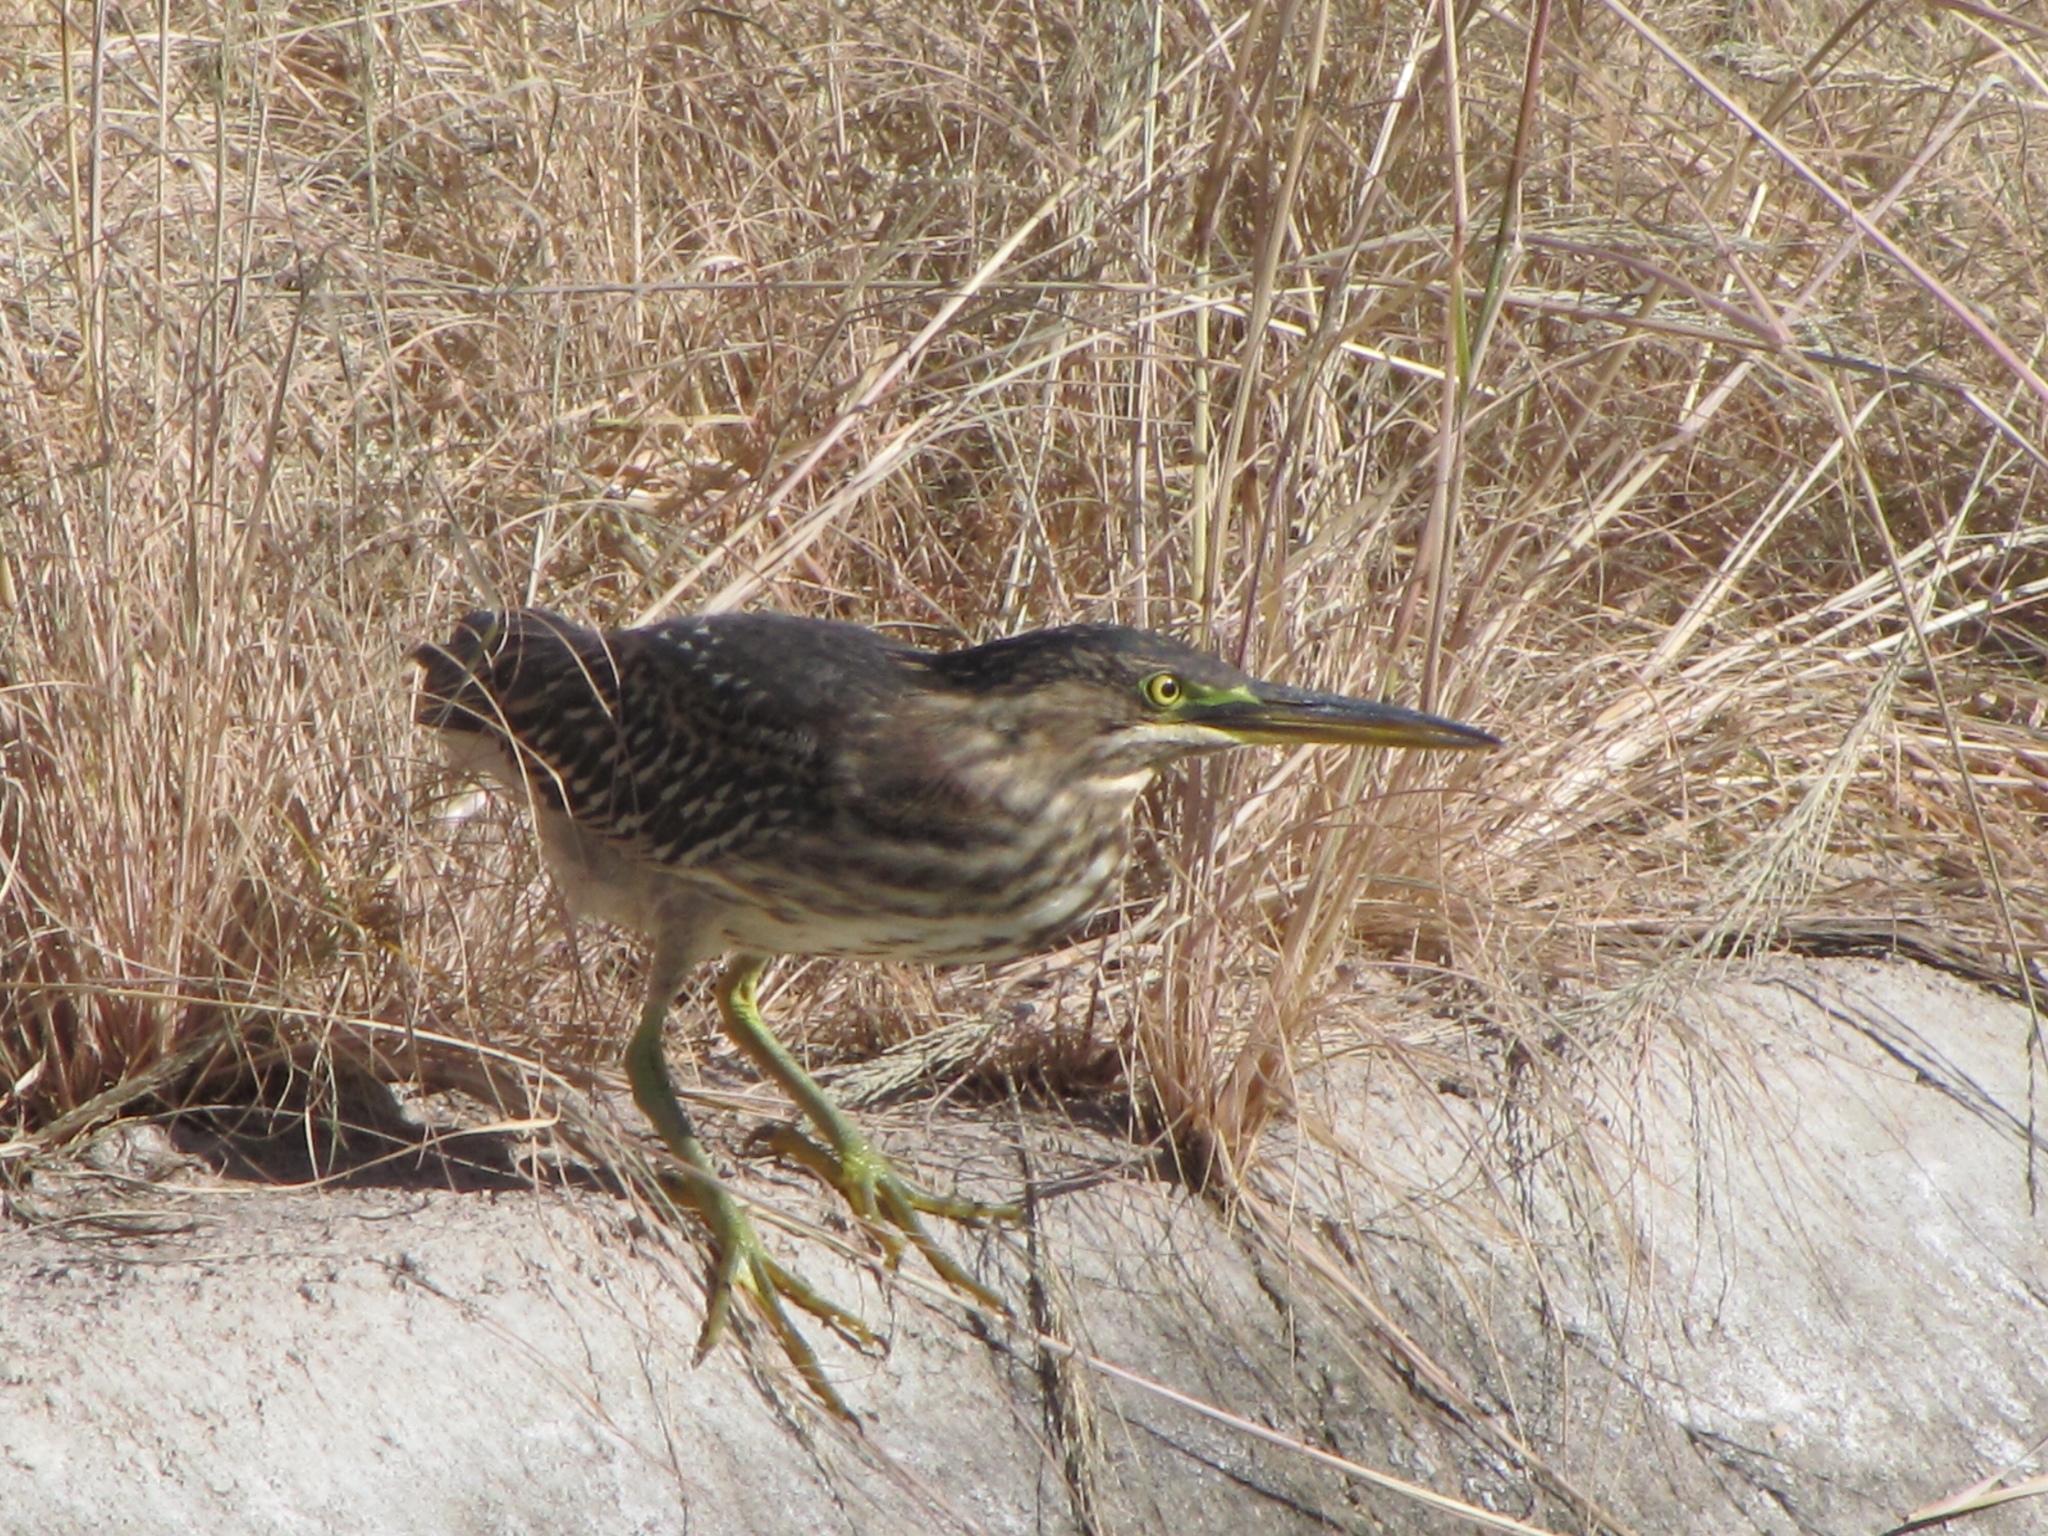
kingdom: Animalia
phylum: Chordata
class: Aves
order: Pelecaniformes
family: Ardeidae
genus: Butorides
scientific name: Butorides virescens
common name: Green heron
